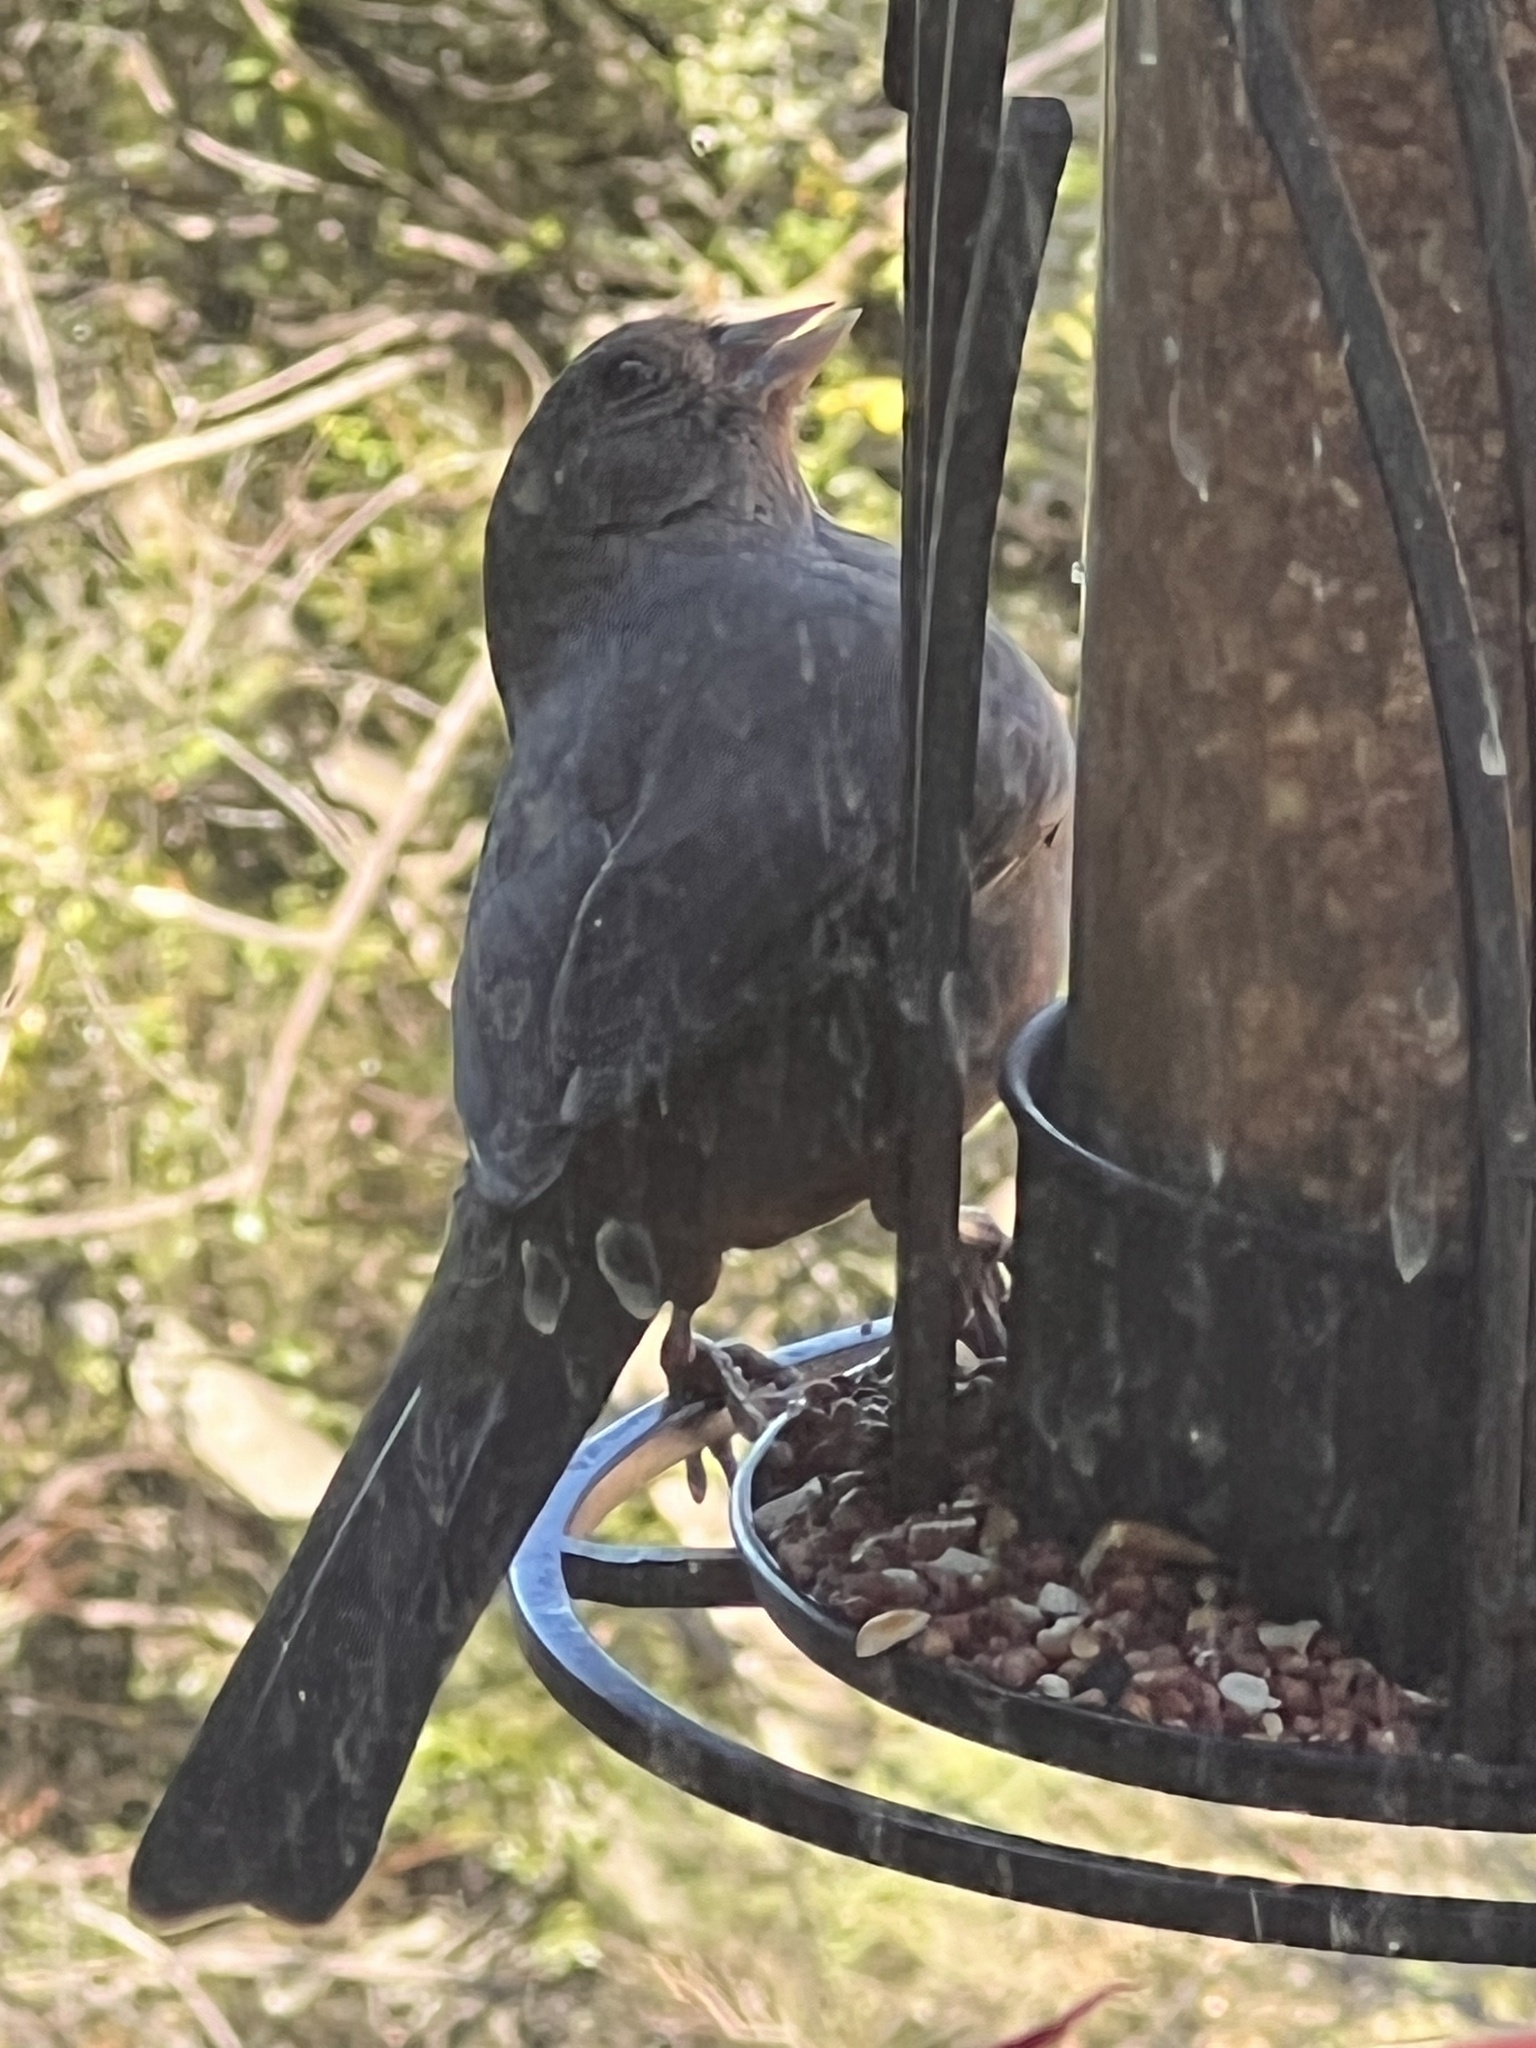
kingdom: Animalia
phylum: Chordata
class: Aves
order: Passeriformes
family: Passerellidae
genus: Melozone
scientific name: Melozone crissalis
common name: California towhee
